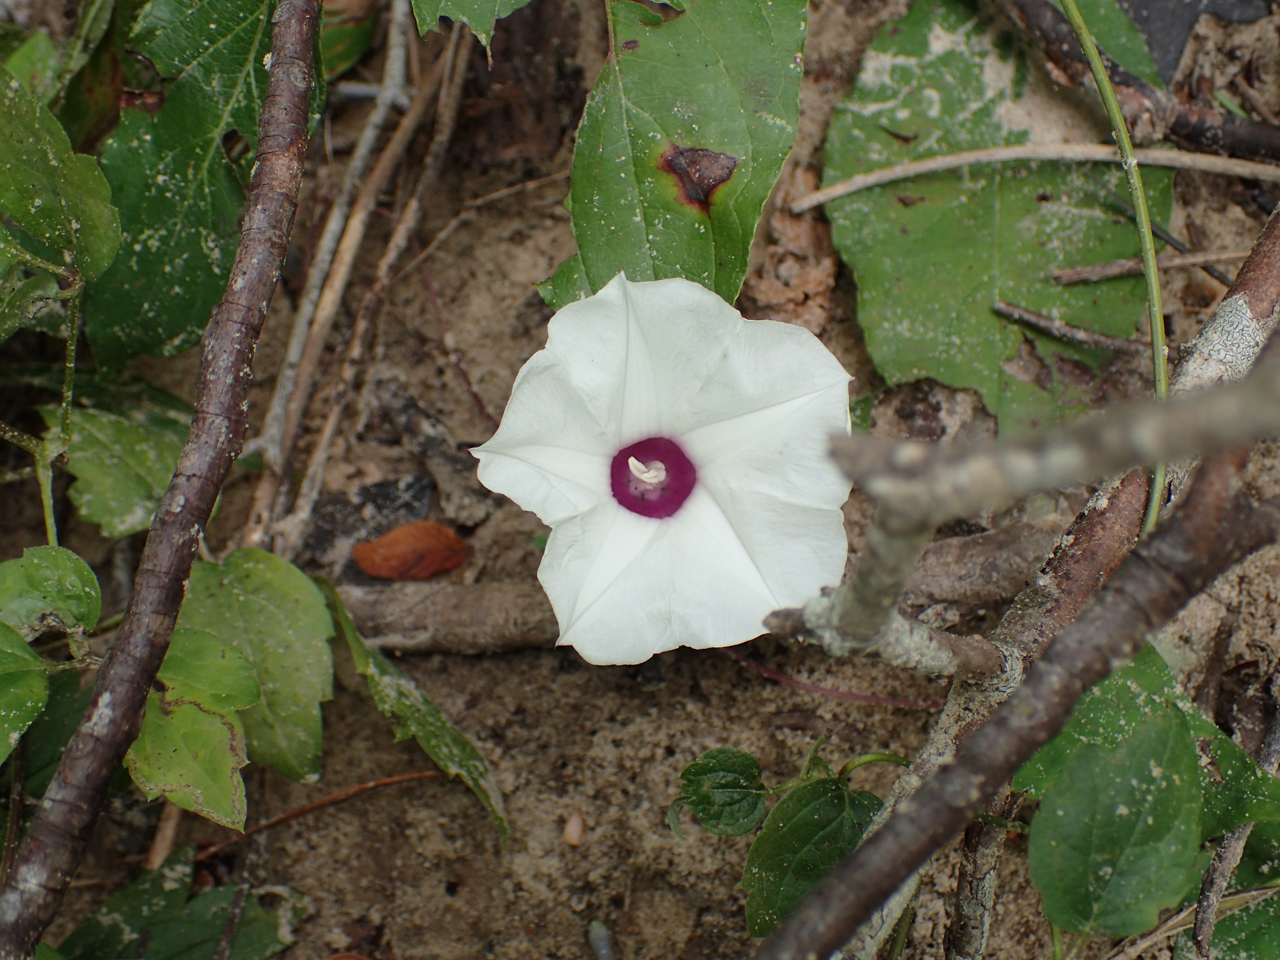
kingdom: Plantae
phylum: Tracheophyta
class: Magnoliopsida
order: Solanales
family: Convolvulaceae
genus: Ipomoea
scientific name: Ipomoea pandurata
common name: Man-of-the-earth
